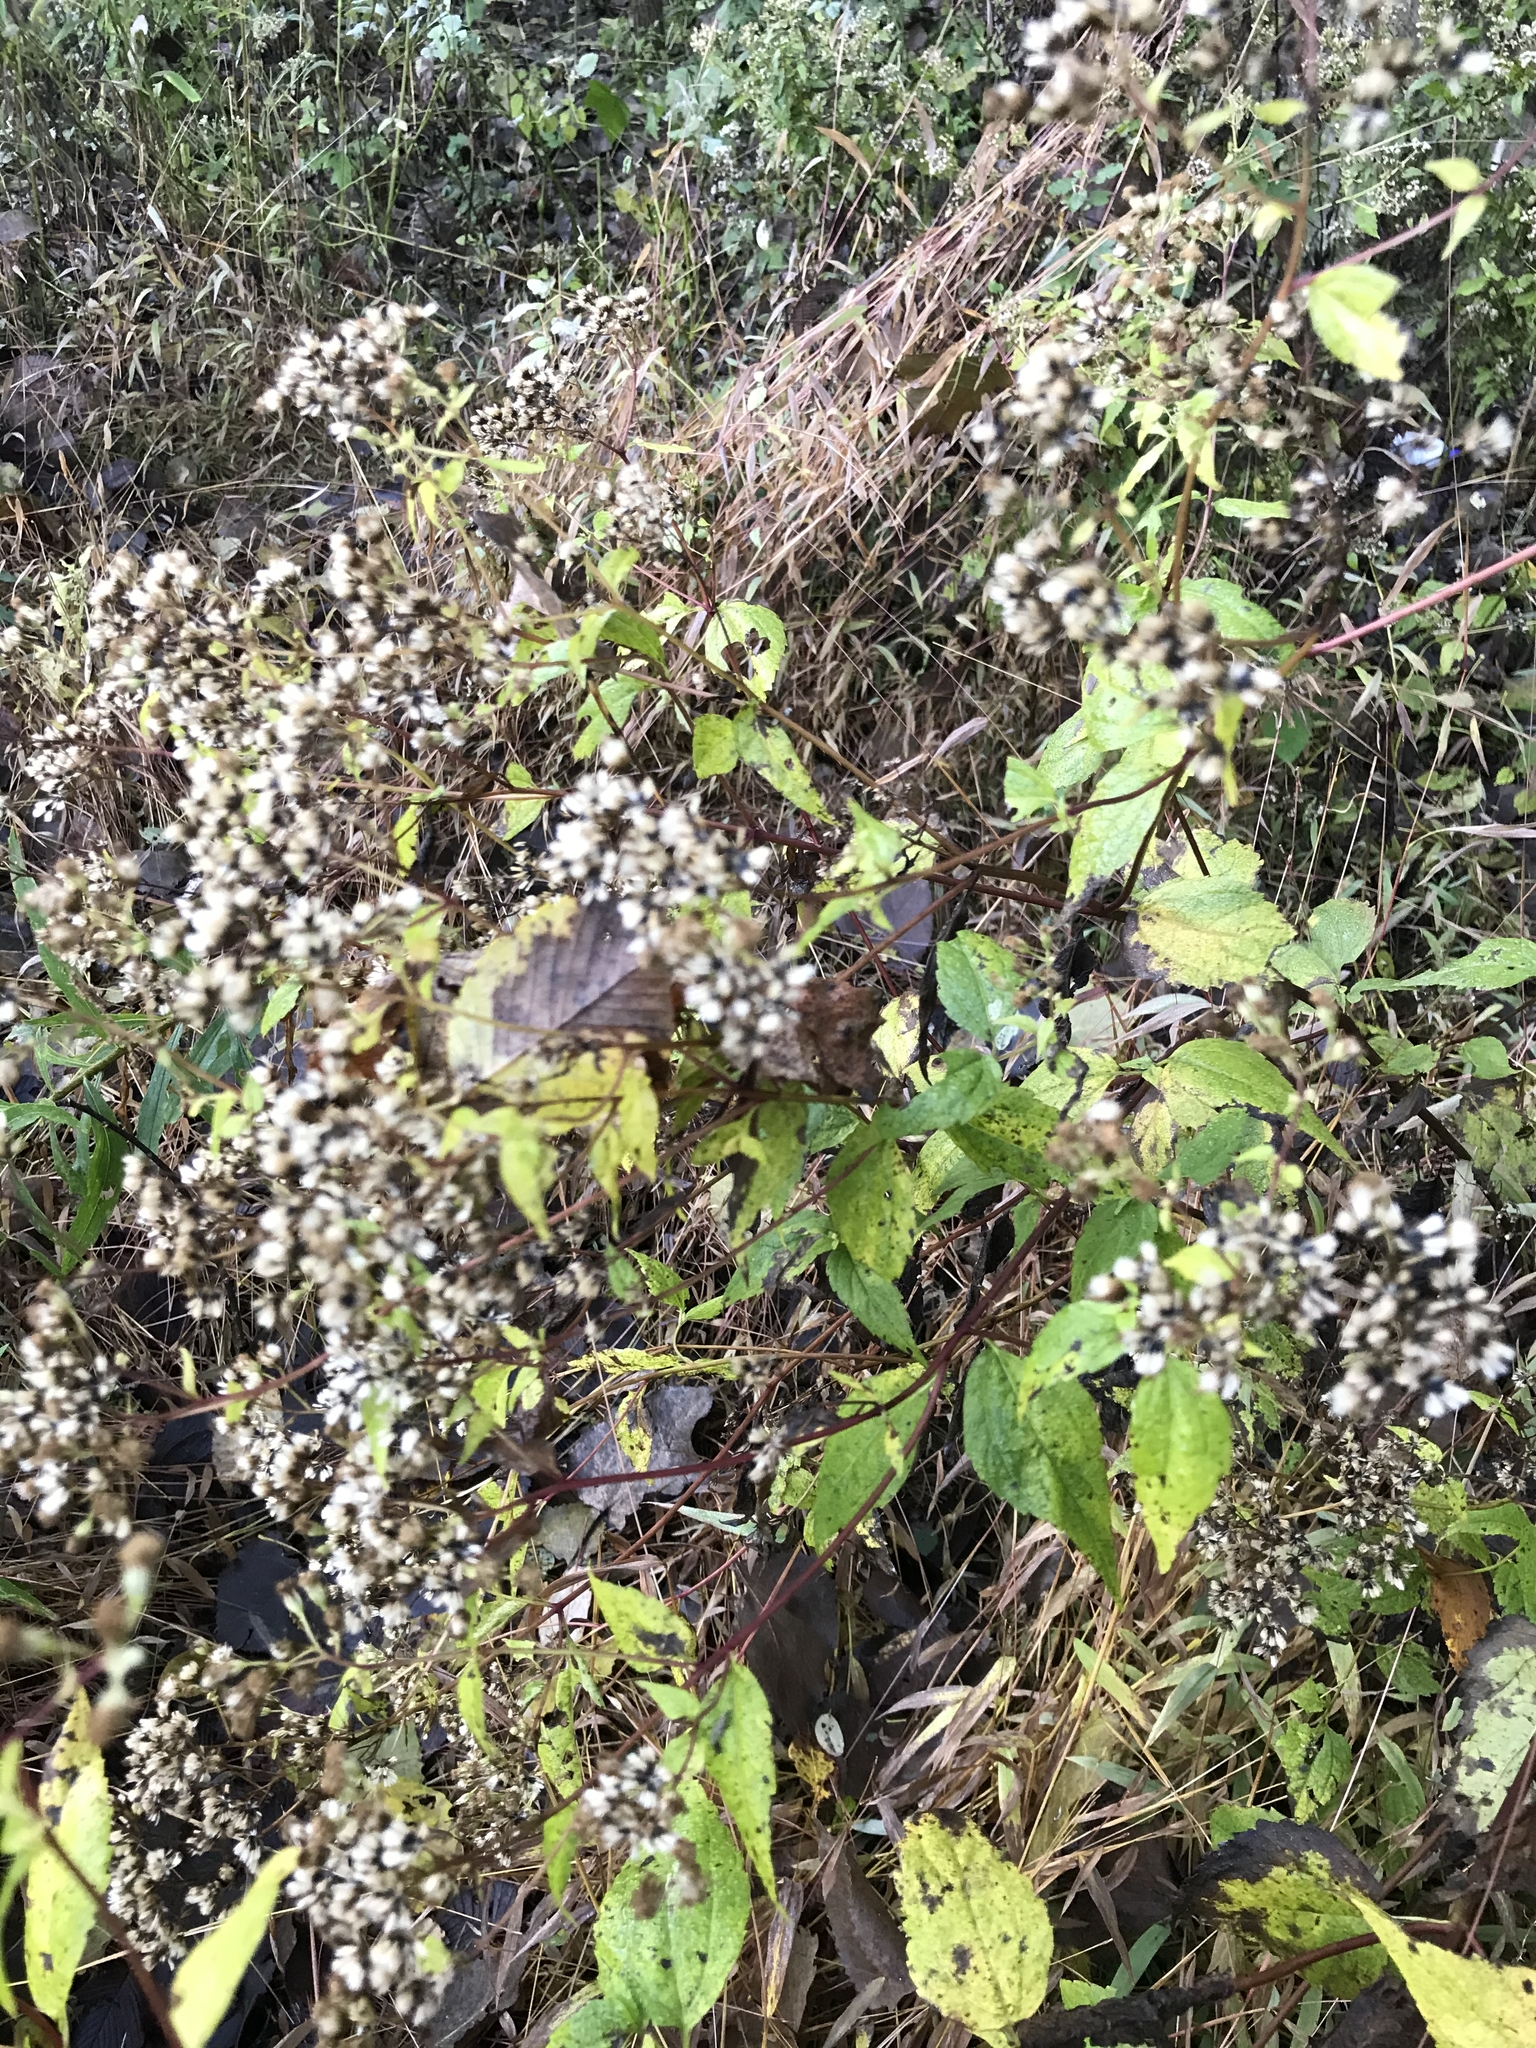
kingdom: Plantae
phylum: Tracheophyta
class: Magnoliopsida
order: Asterales
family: Asteraceae
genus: Ageratina
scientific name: Ageratina altissima
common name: White snakeroot
